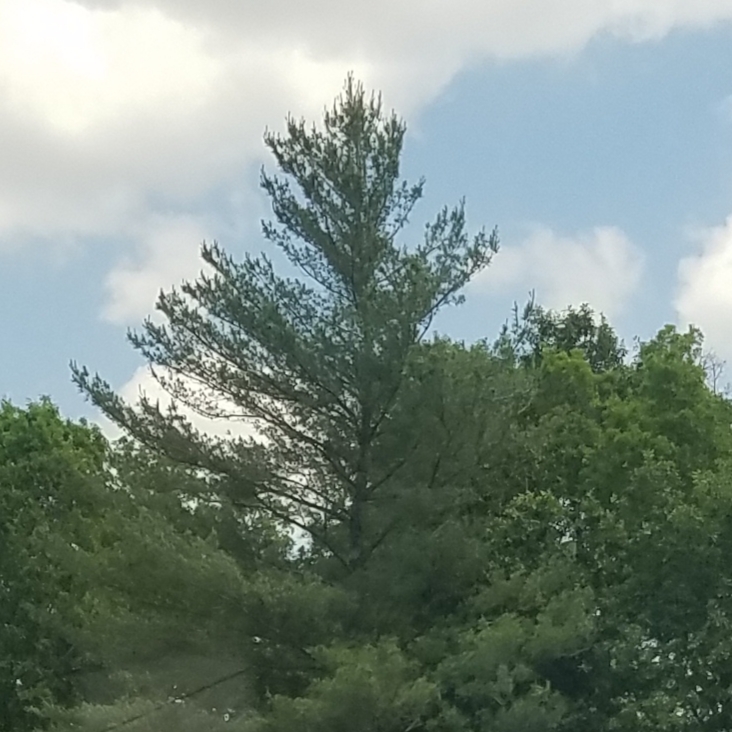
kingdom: Plantae
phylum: Tracheophyta
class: Pinopsida
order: Pinales
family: Pinaceae
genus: Pinus
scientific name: Pinus strobus
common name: Weymouth pine
